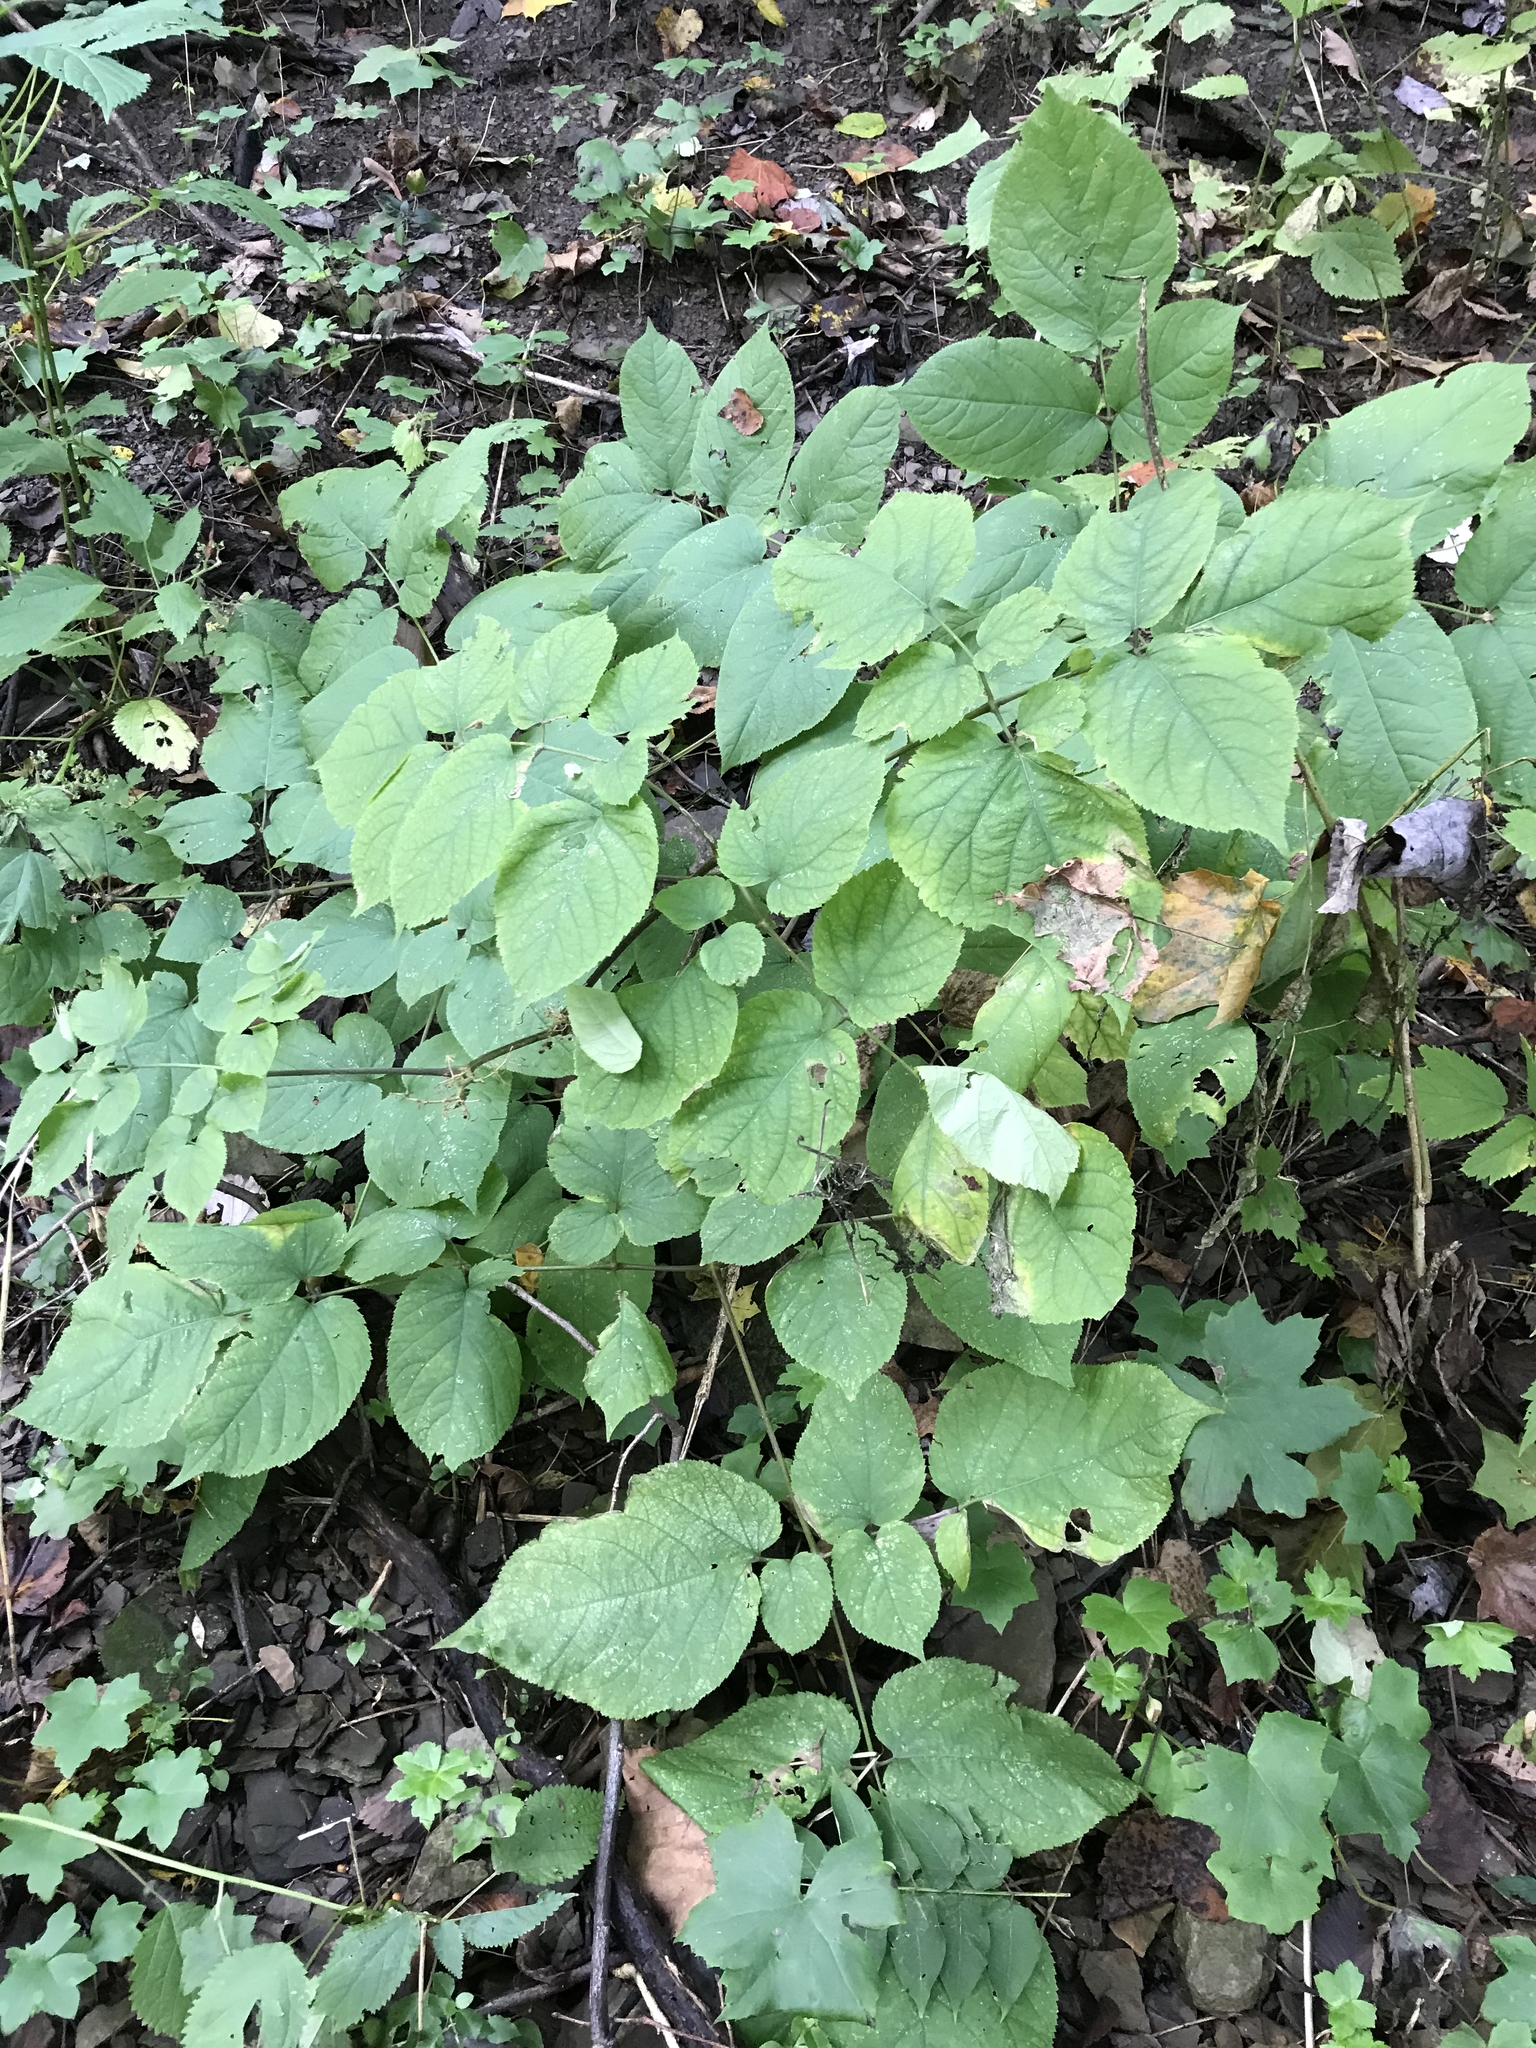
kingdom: Plantae
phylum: Tracheophyta
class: Magnoliopsida
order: Apiales
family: Araliaceae
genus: Aralia
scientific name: Aralia racemosa
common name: American-spikenard
